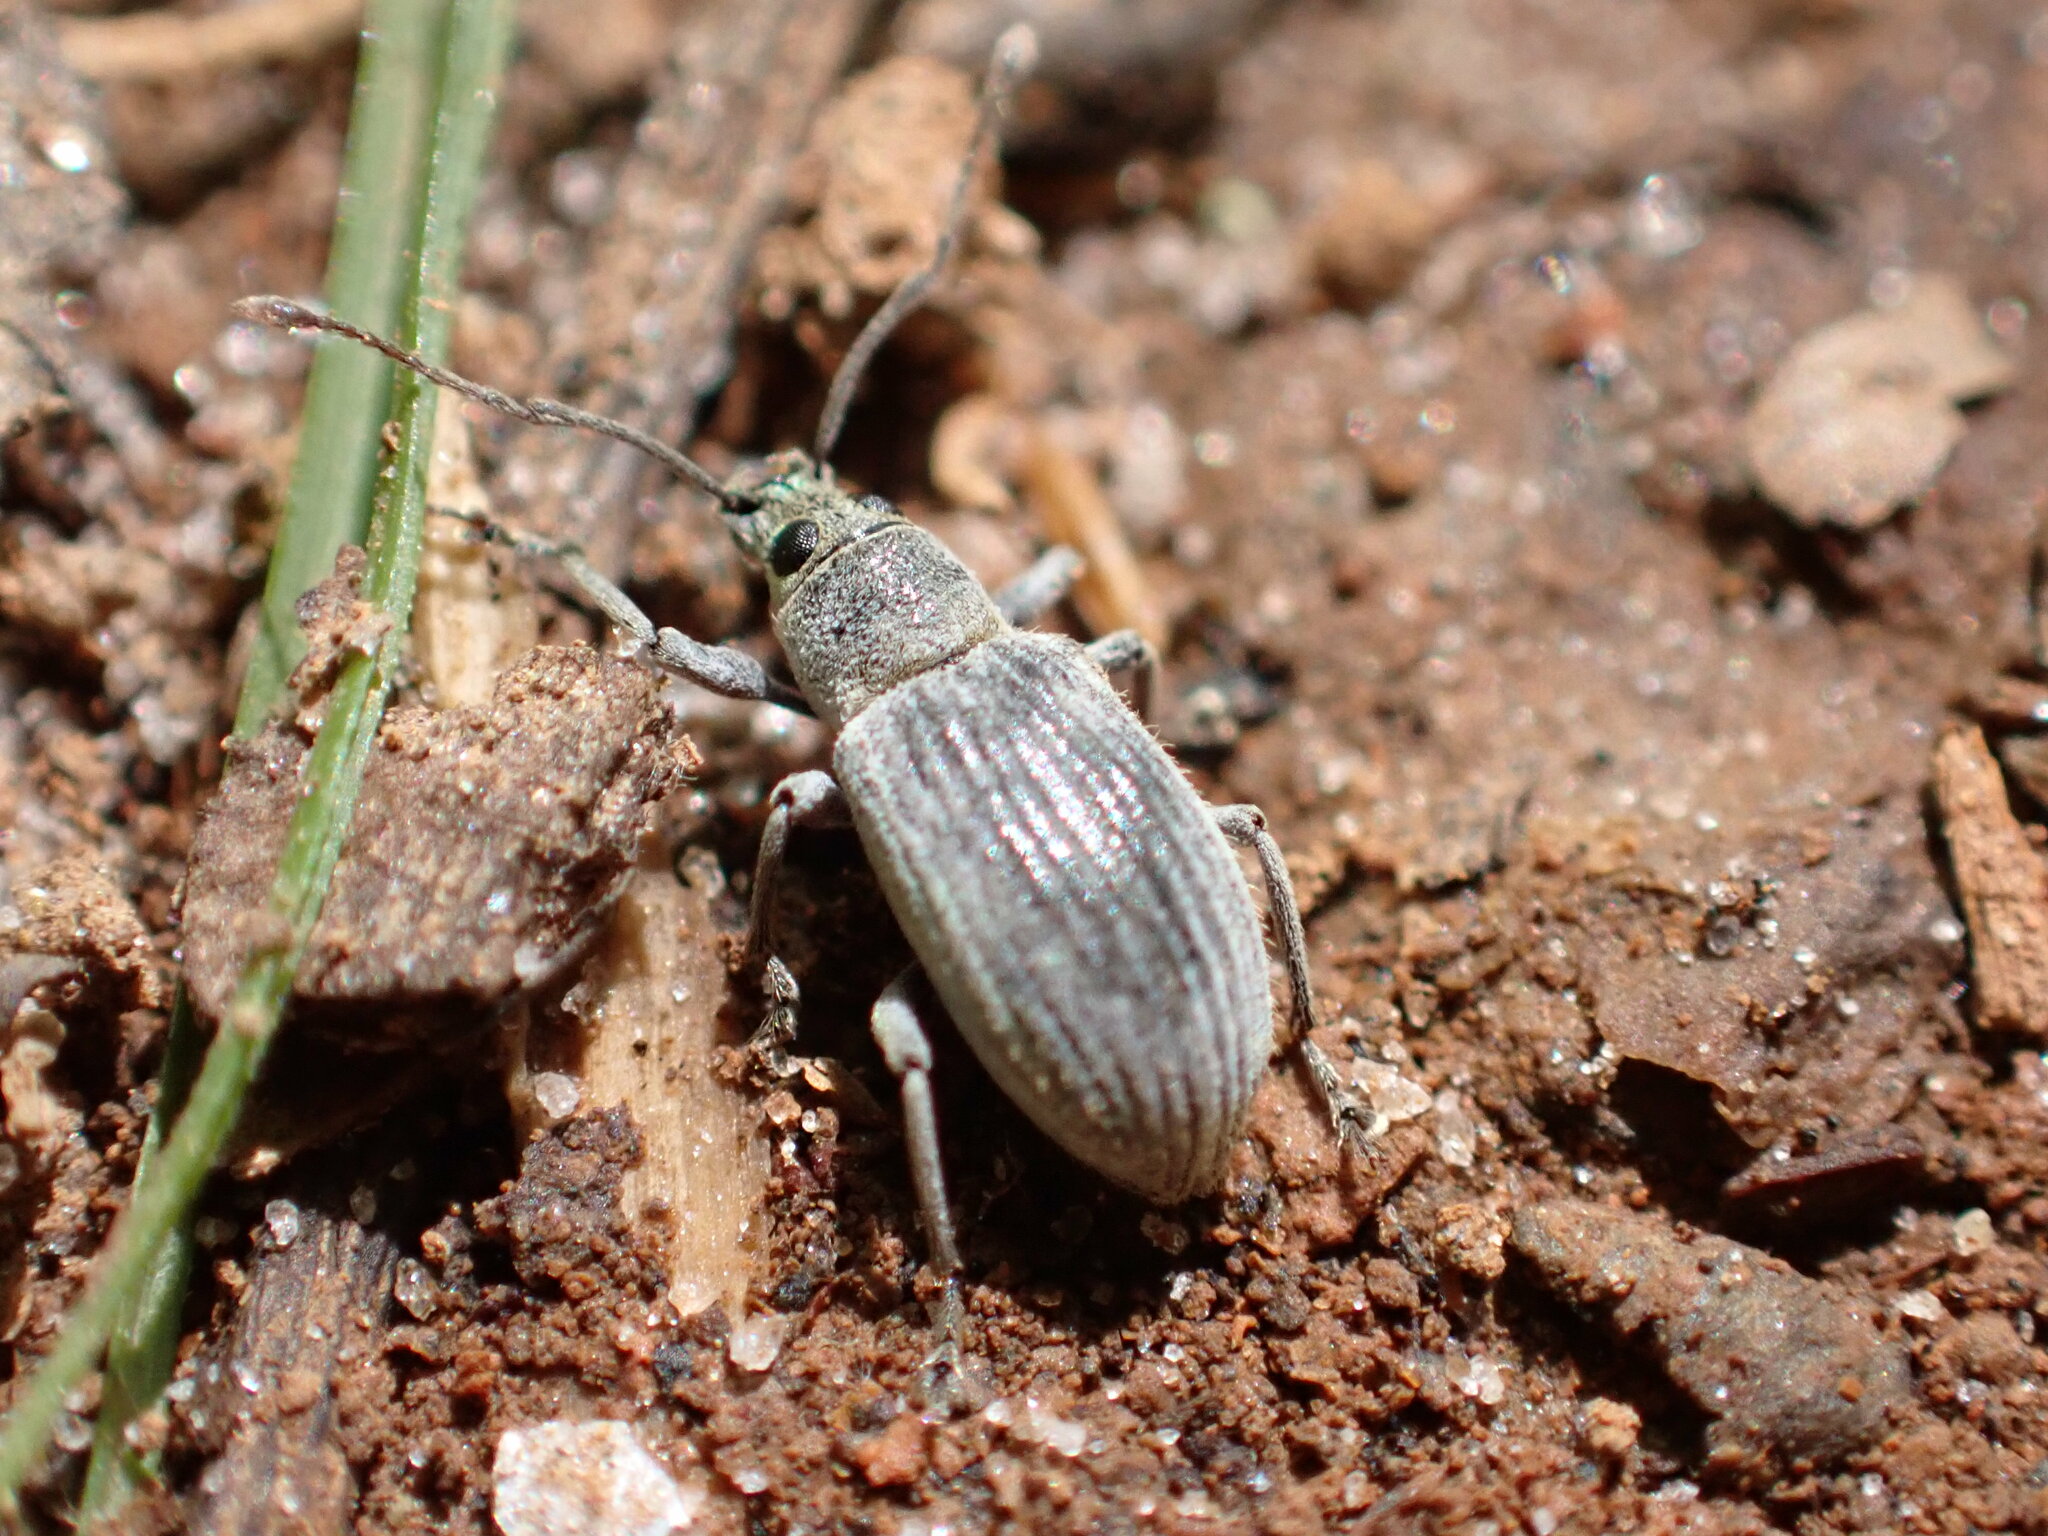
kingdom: Animalia
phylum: Arthropoda
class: Insecta
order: Coleoptera
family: Curculionidae
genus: Cyrtepistomus
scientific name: Cyrtepistomus castaneus
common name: Weevil
